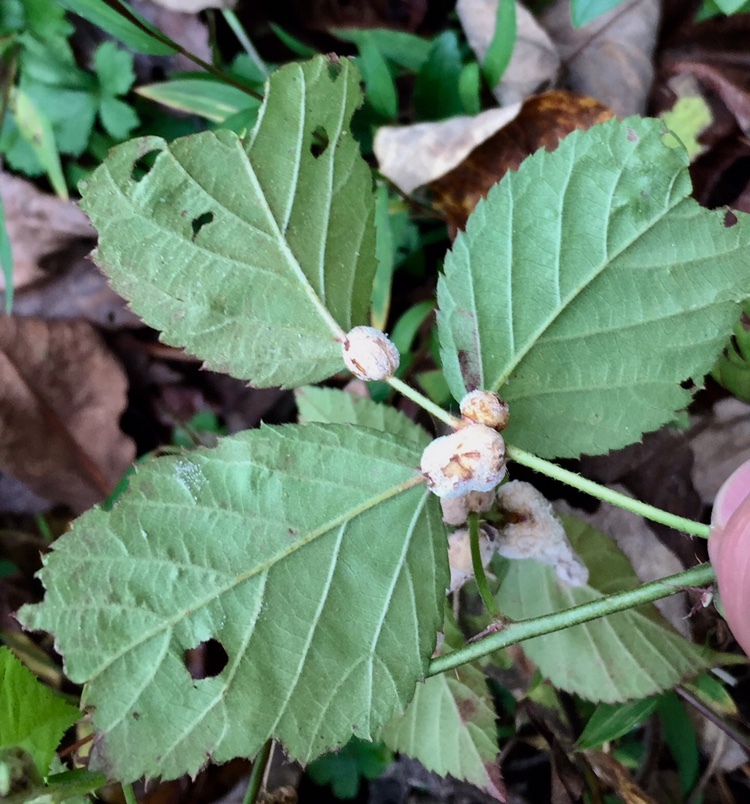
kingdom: Animalia
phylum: Arthropoda
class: Insecta
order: Diptera
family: Cecidomyiidae
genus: Neolasioptera
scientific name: Neolasioptera farinosa
